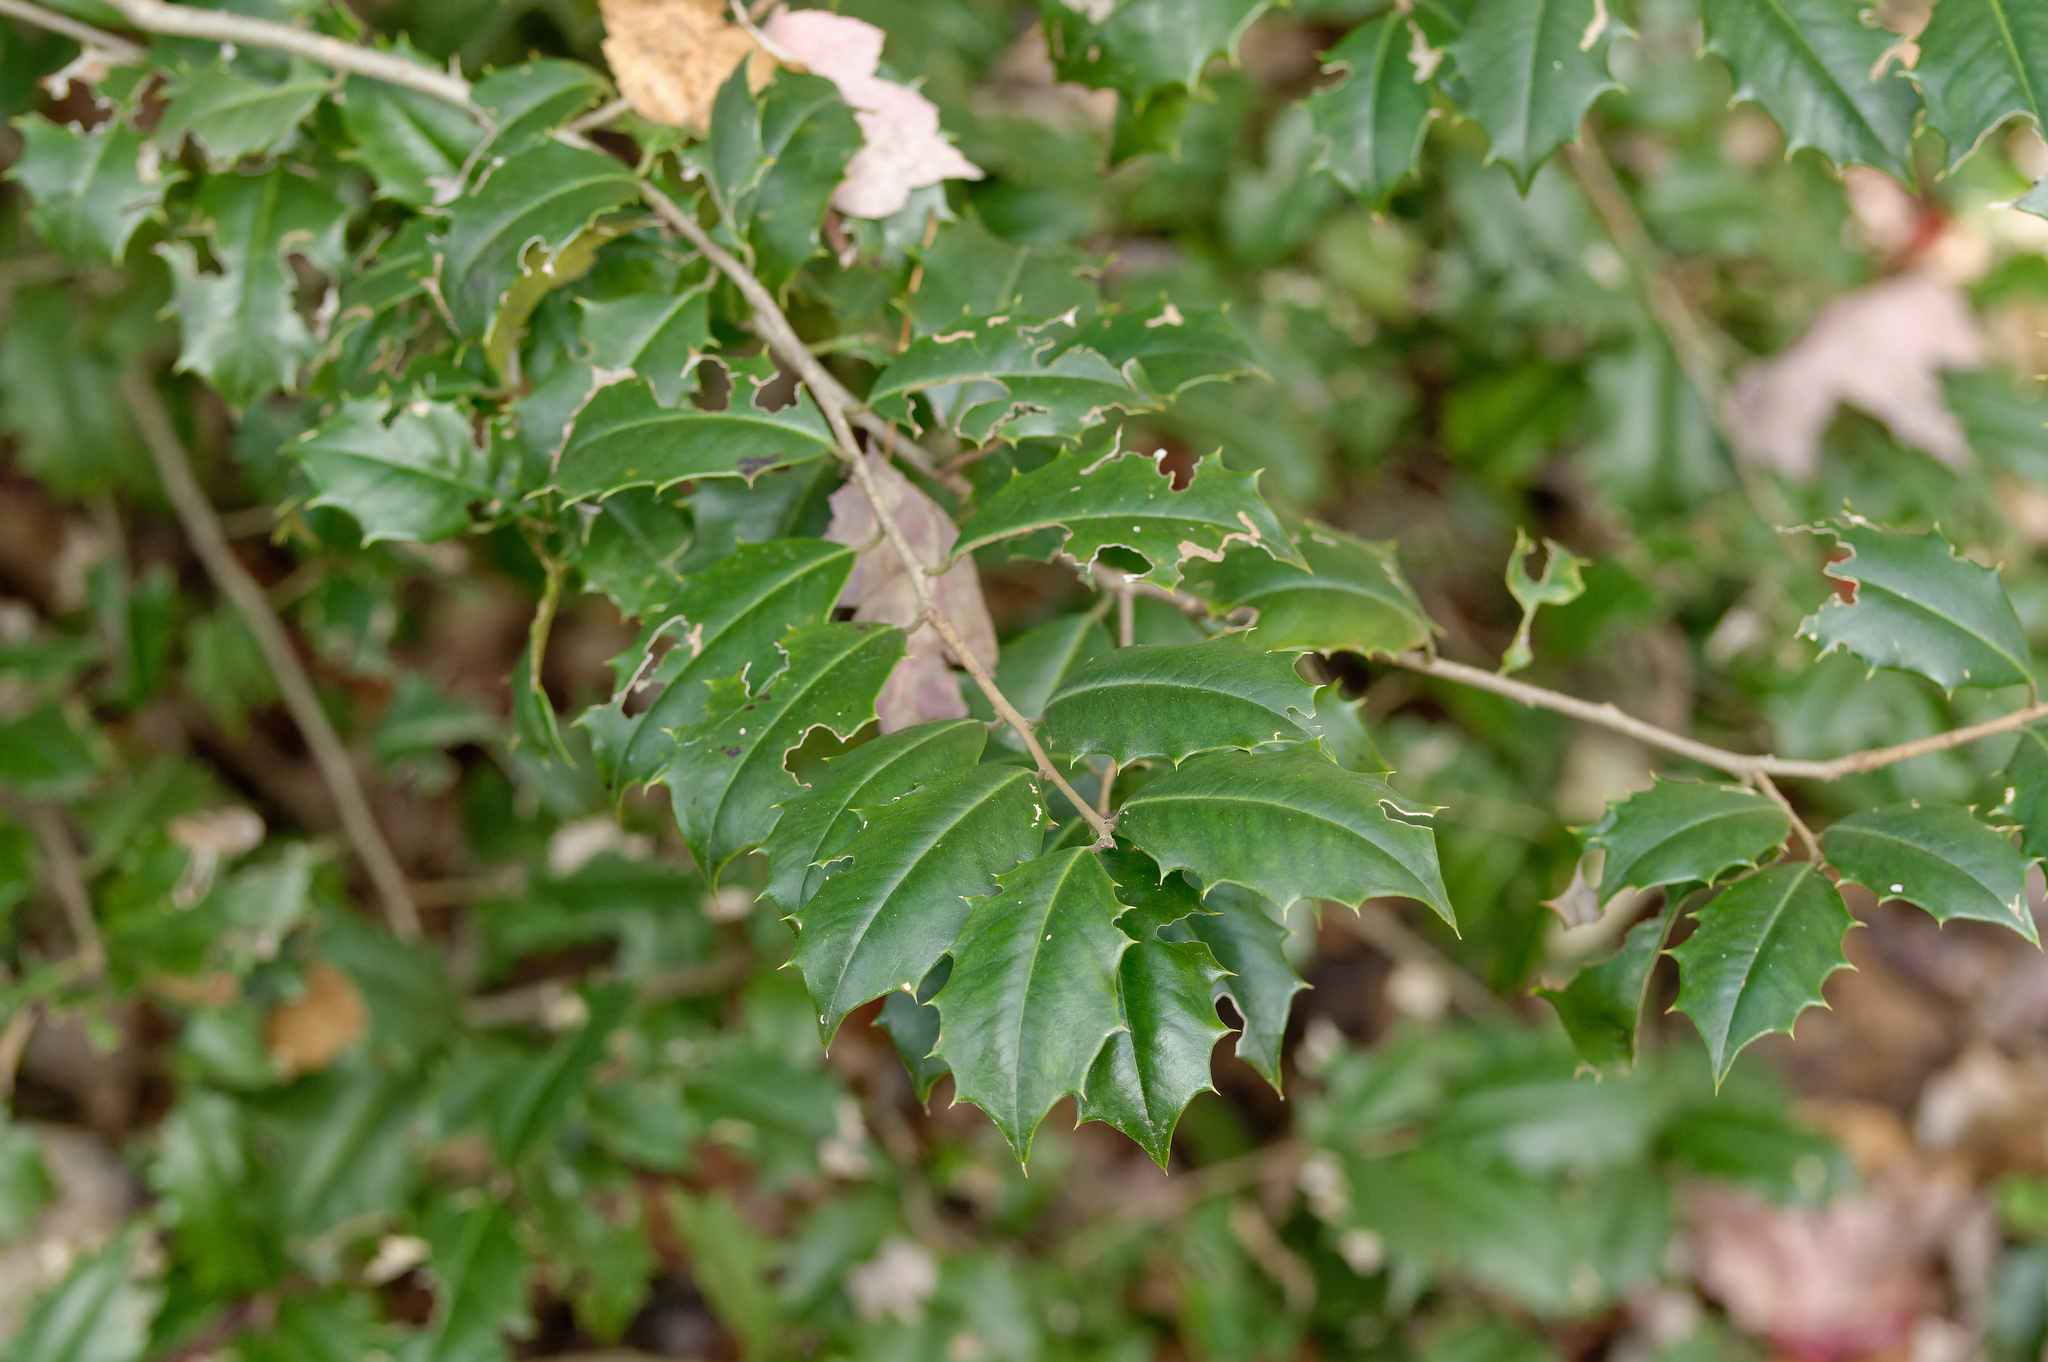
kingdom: Plantae
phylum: Tracheophyta
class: Magnoliopsida
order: Aquifoliales
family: Aquifoliaceae
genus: Ilex
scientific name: Ilex opaca
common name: American holly
